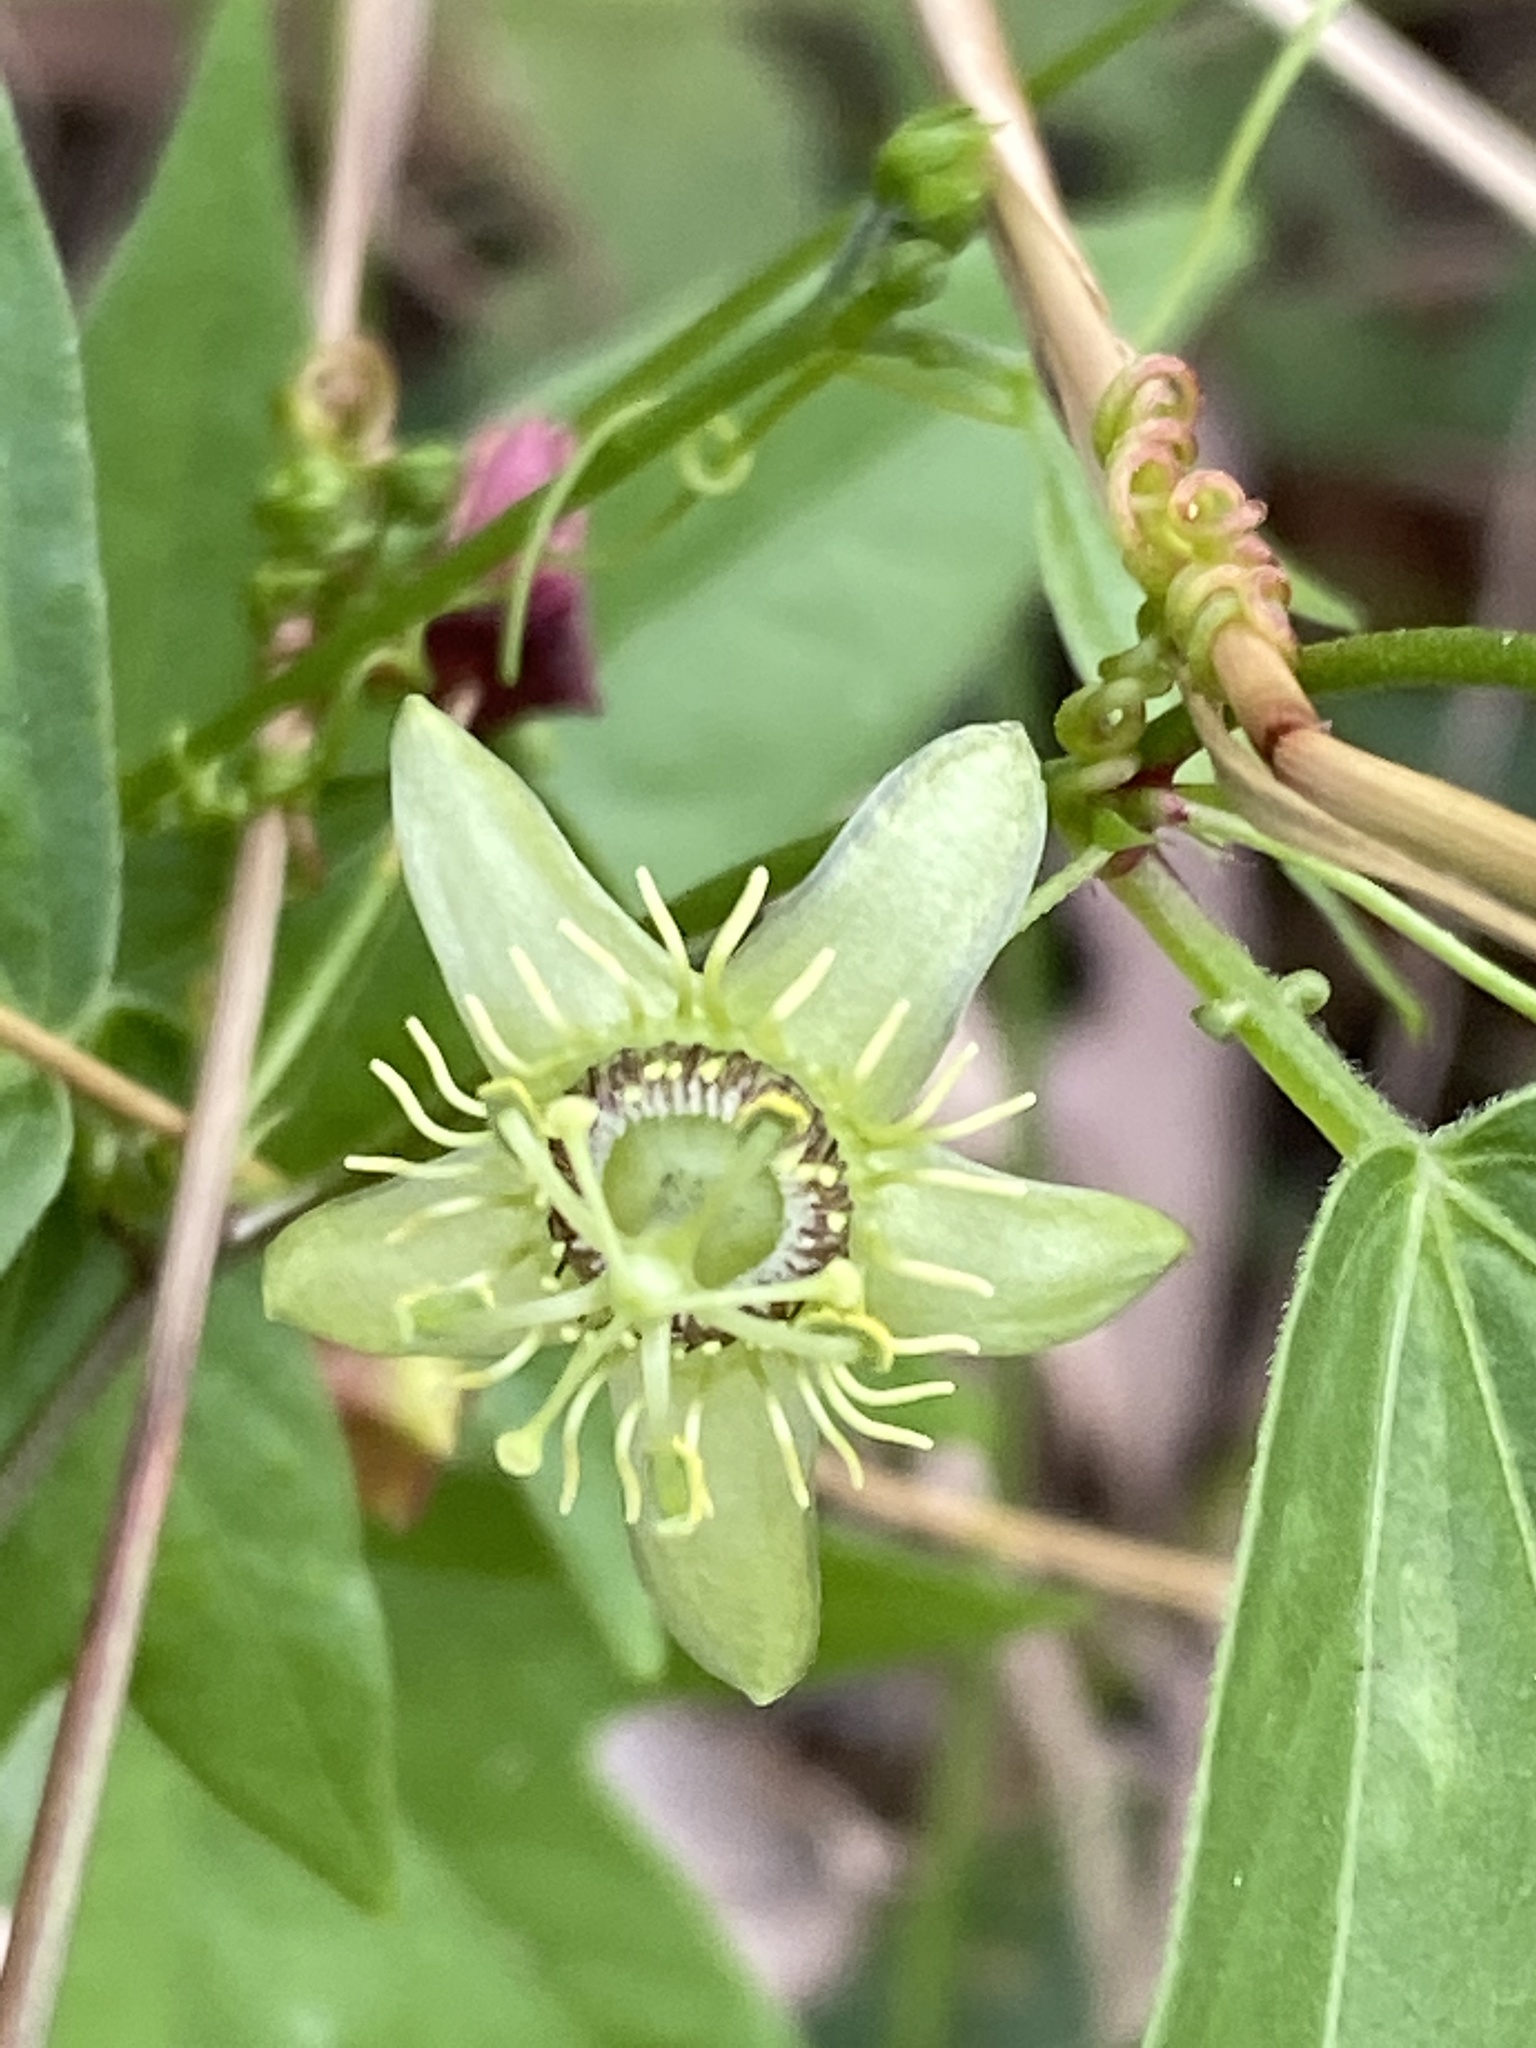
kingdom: Plantae
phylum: Tracheophyta
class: Magnoliopsida
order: Malpighiales
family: Passifloraceae
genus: Passiflora
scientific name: Passiflora suberosa
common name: Wild passionfruit
